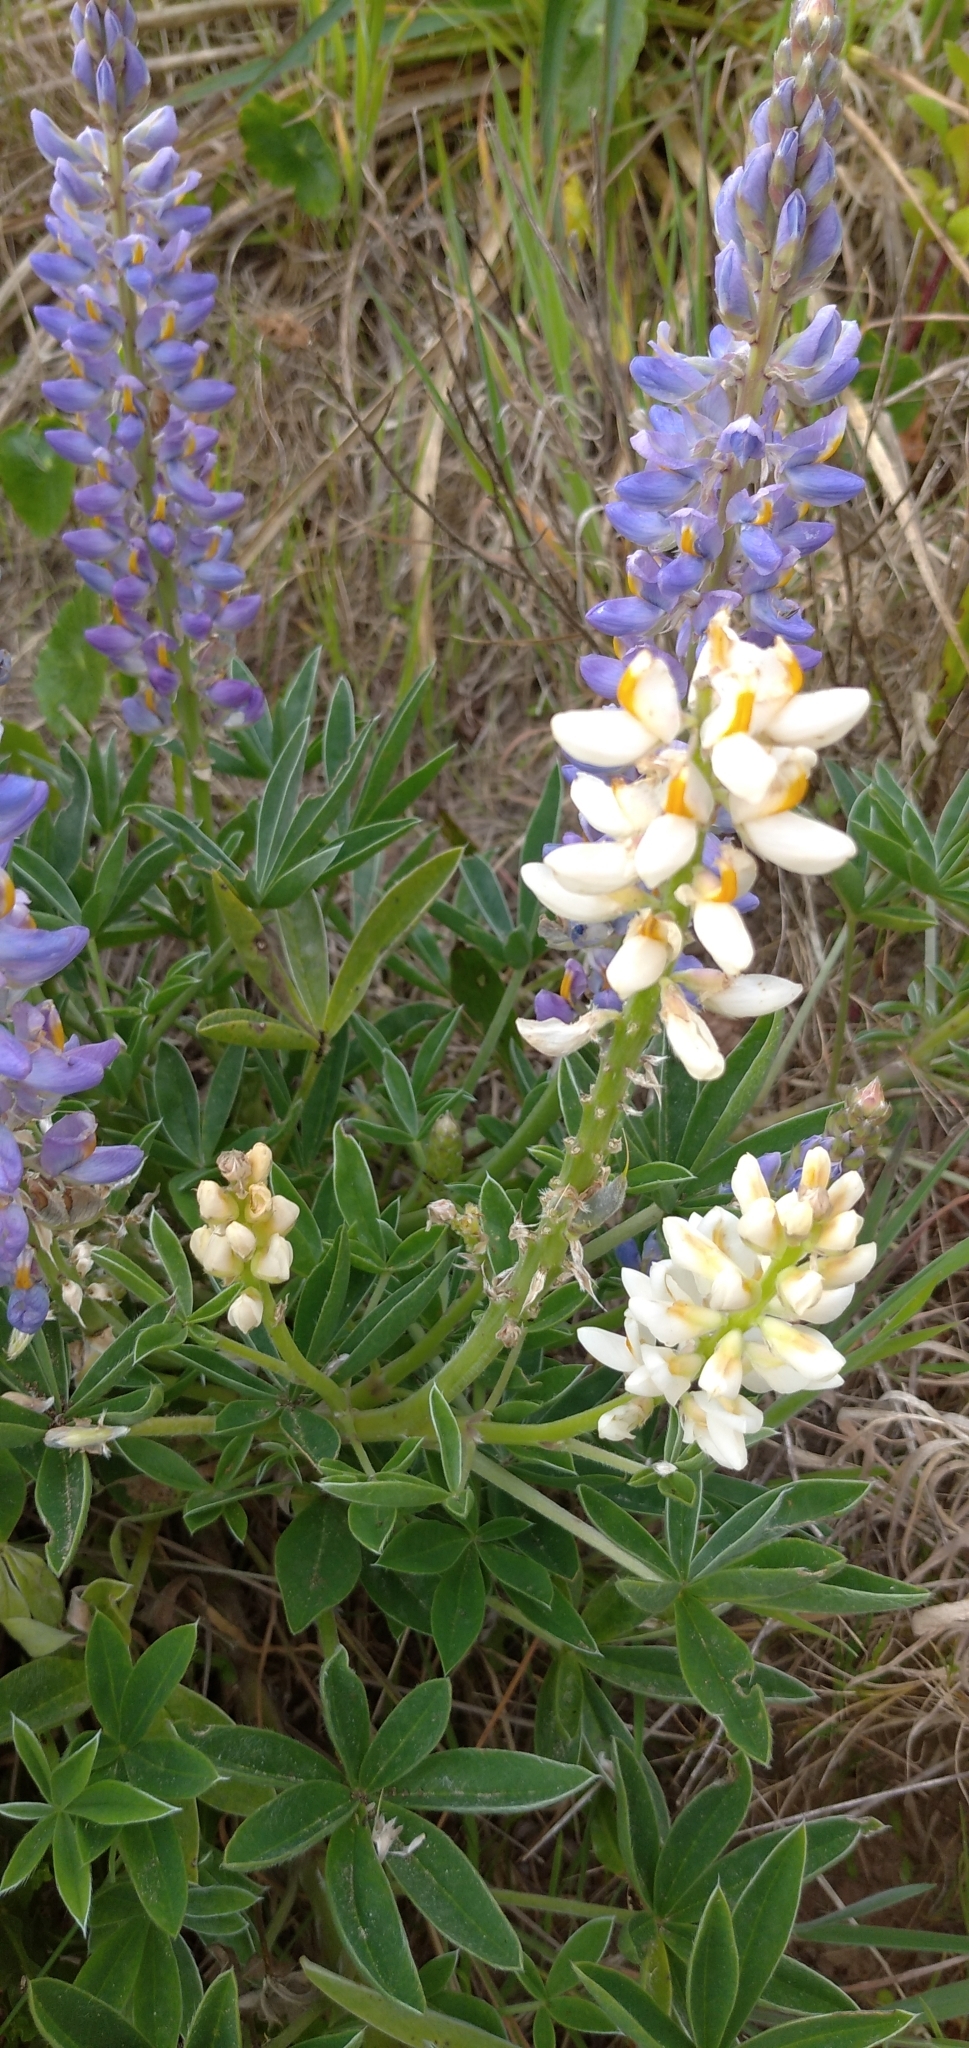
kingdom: Plantae
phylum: Tracheophyta
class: Magnoliopsida
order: Fabales
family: Fabaceae
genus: Lupinus
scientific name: Lupinus multiflorus
